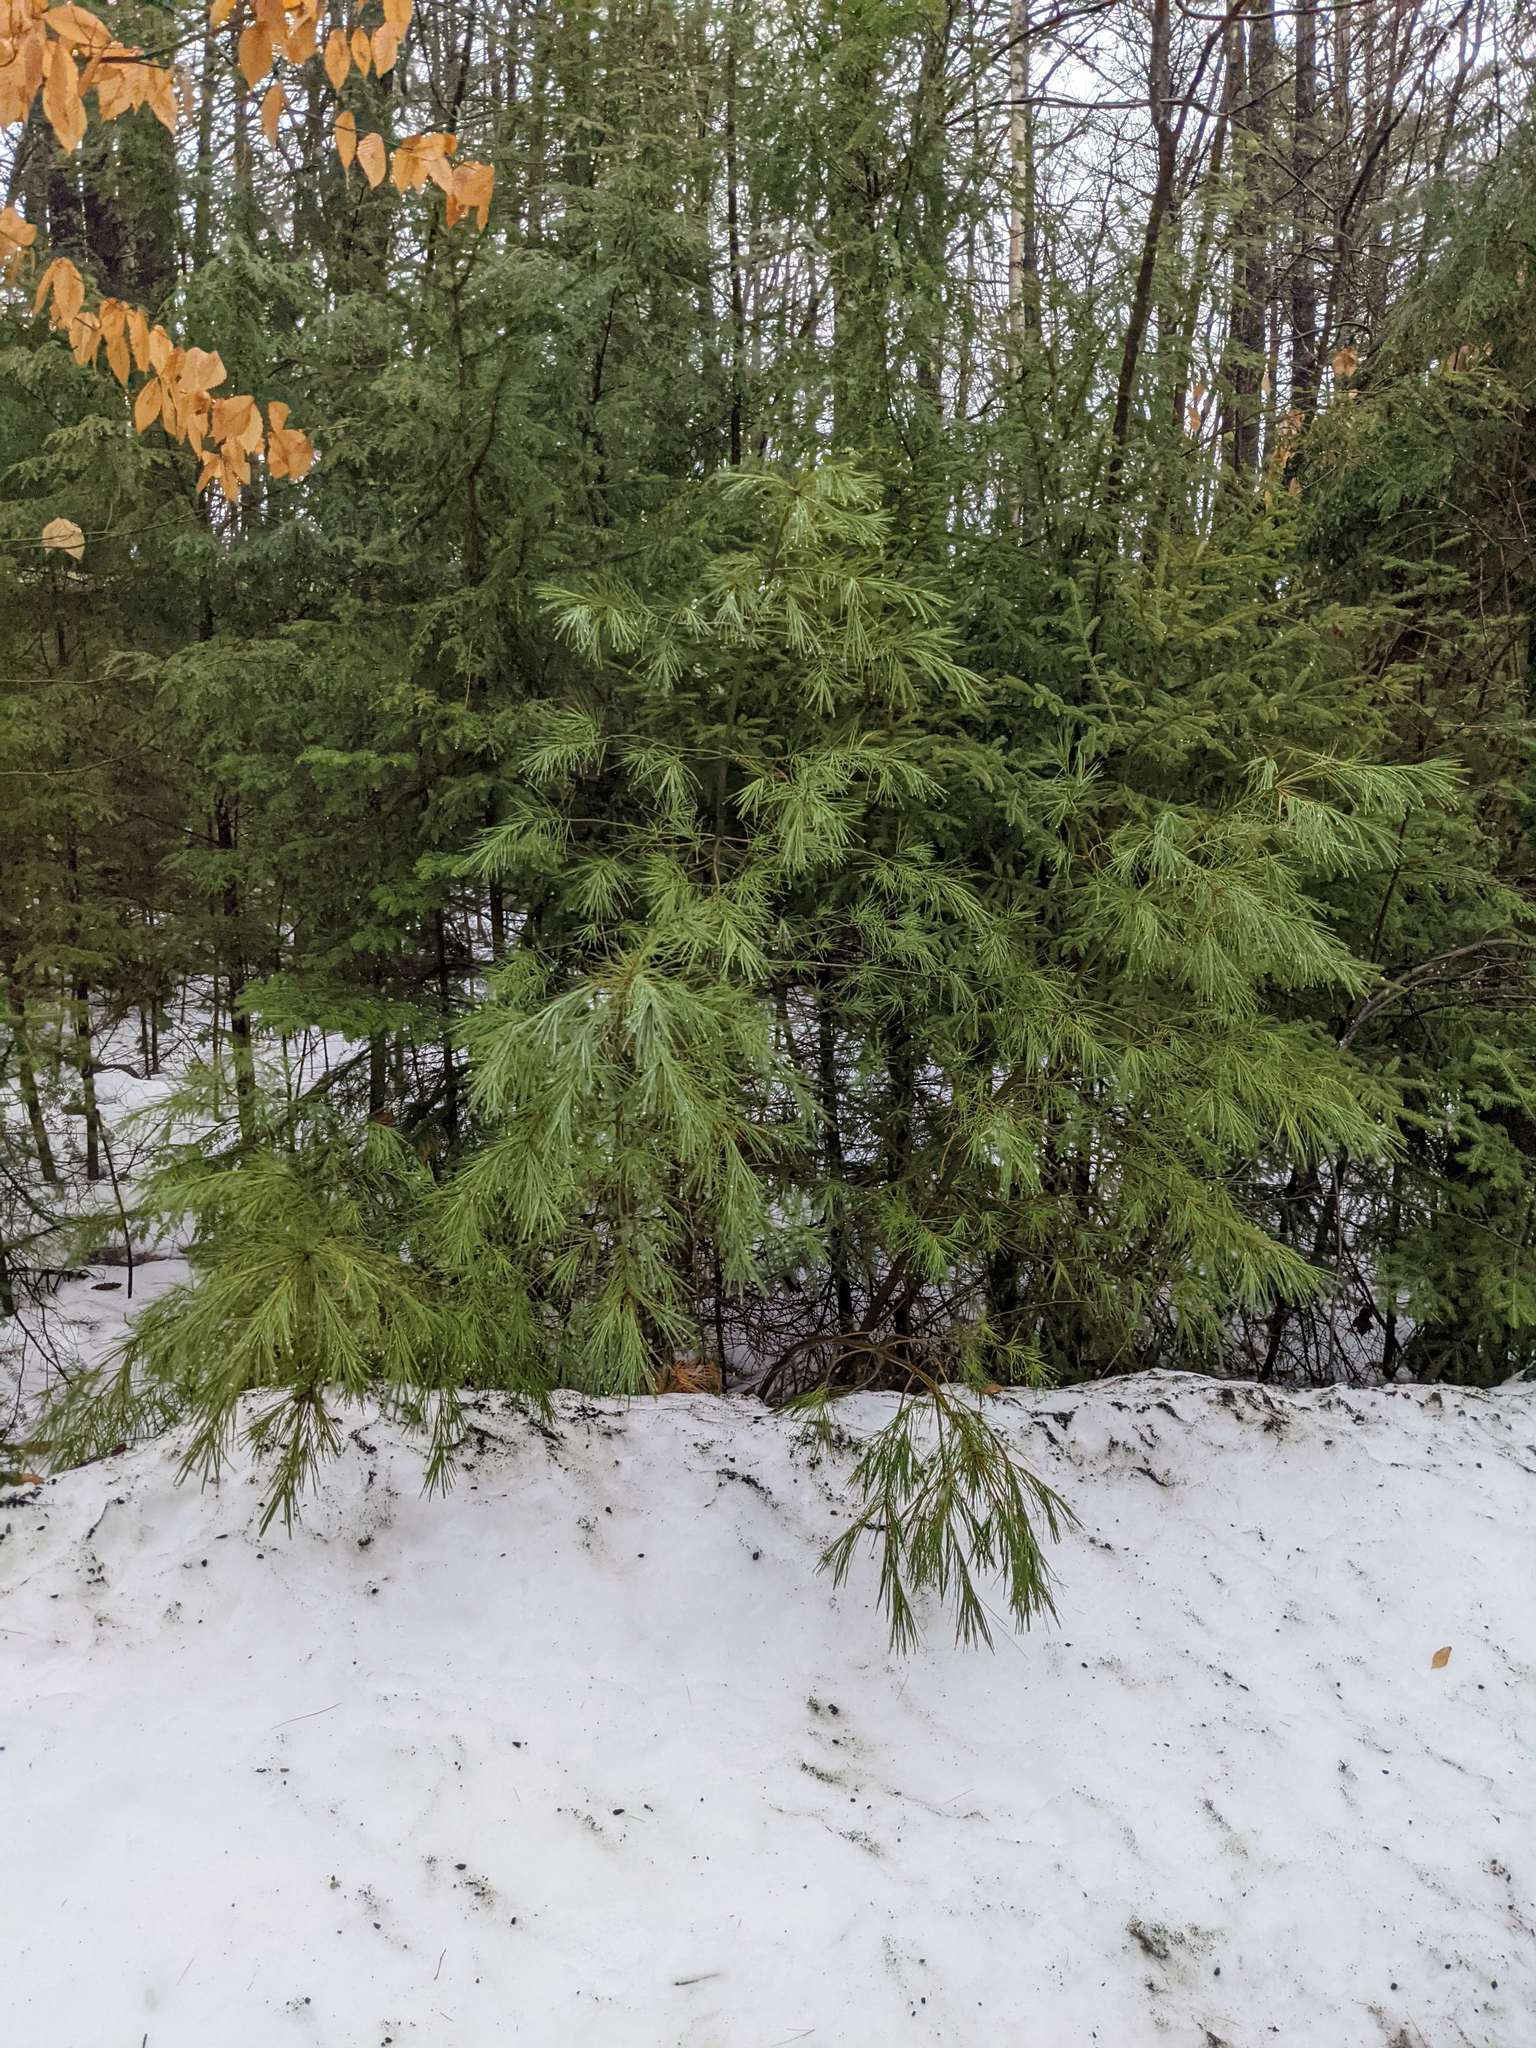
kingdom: Plantae
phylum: Tracheophyta
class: Pinopsida
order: Pinales
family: Pinaceae
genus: Tsuga
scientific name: Tsuga canadensis
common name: Eastern hemlock
